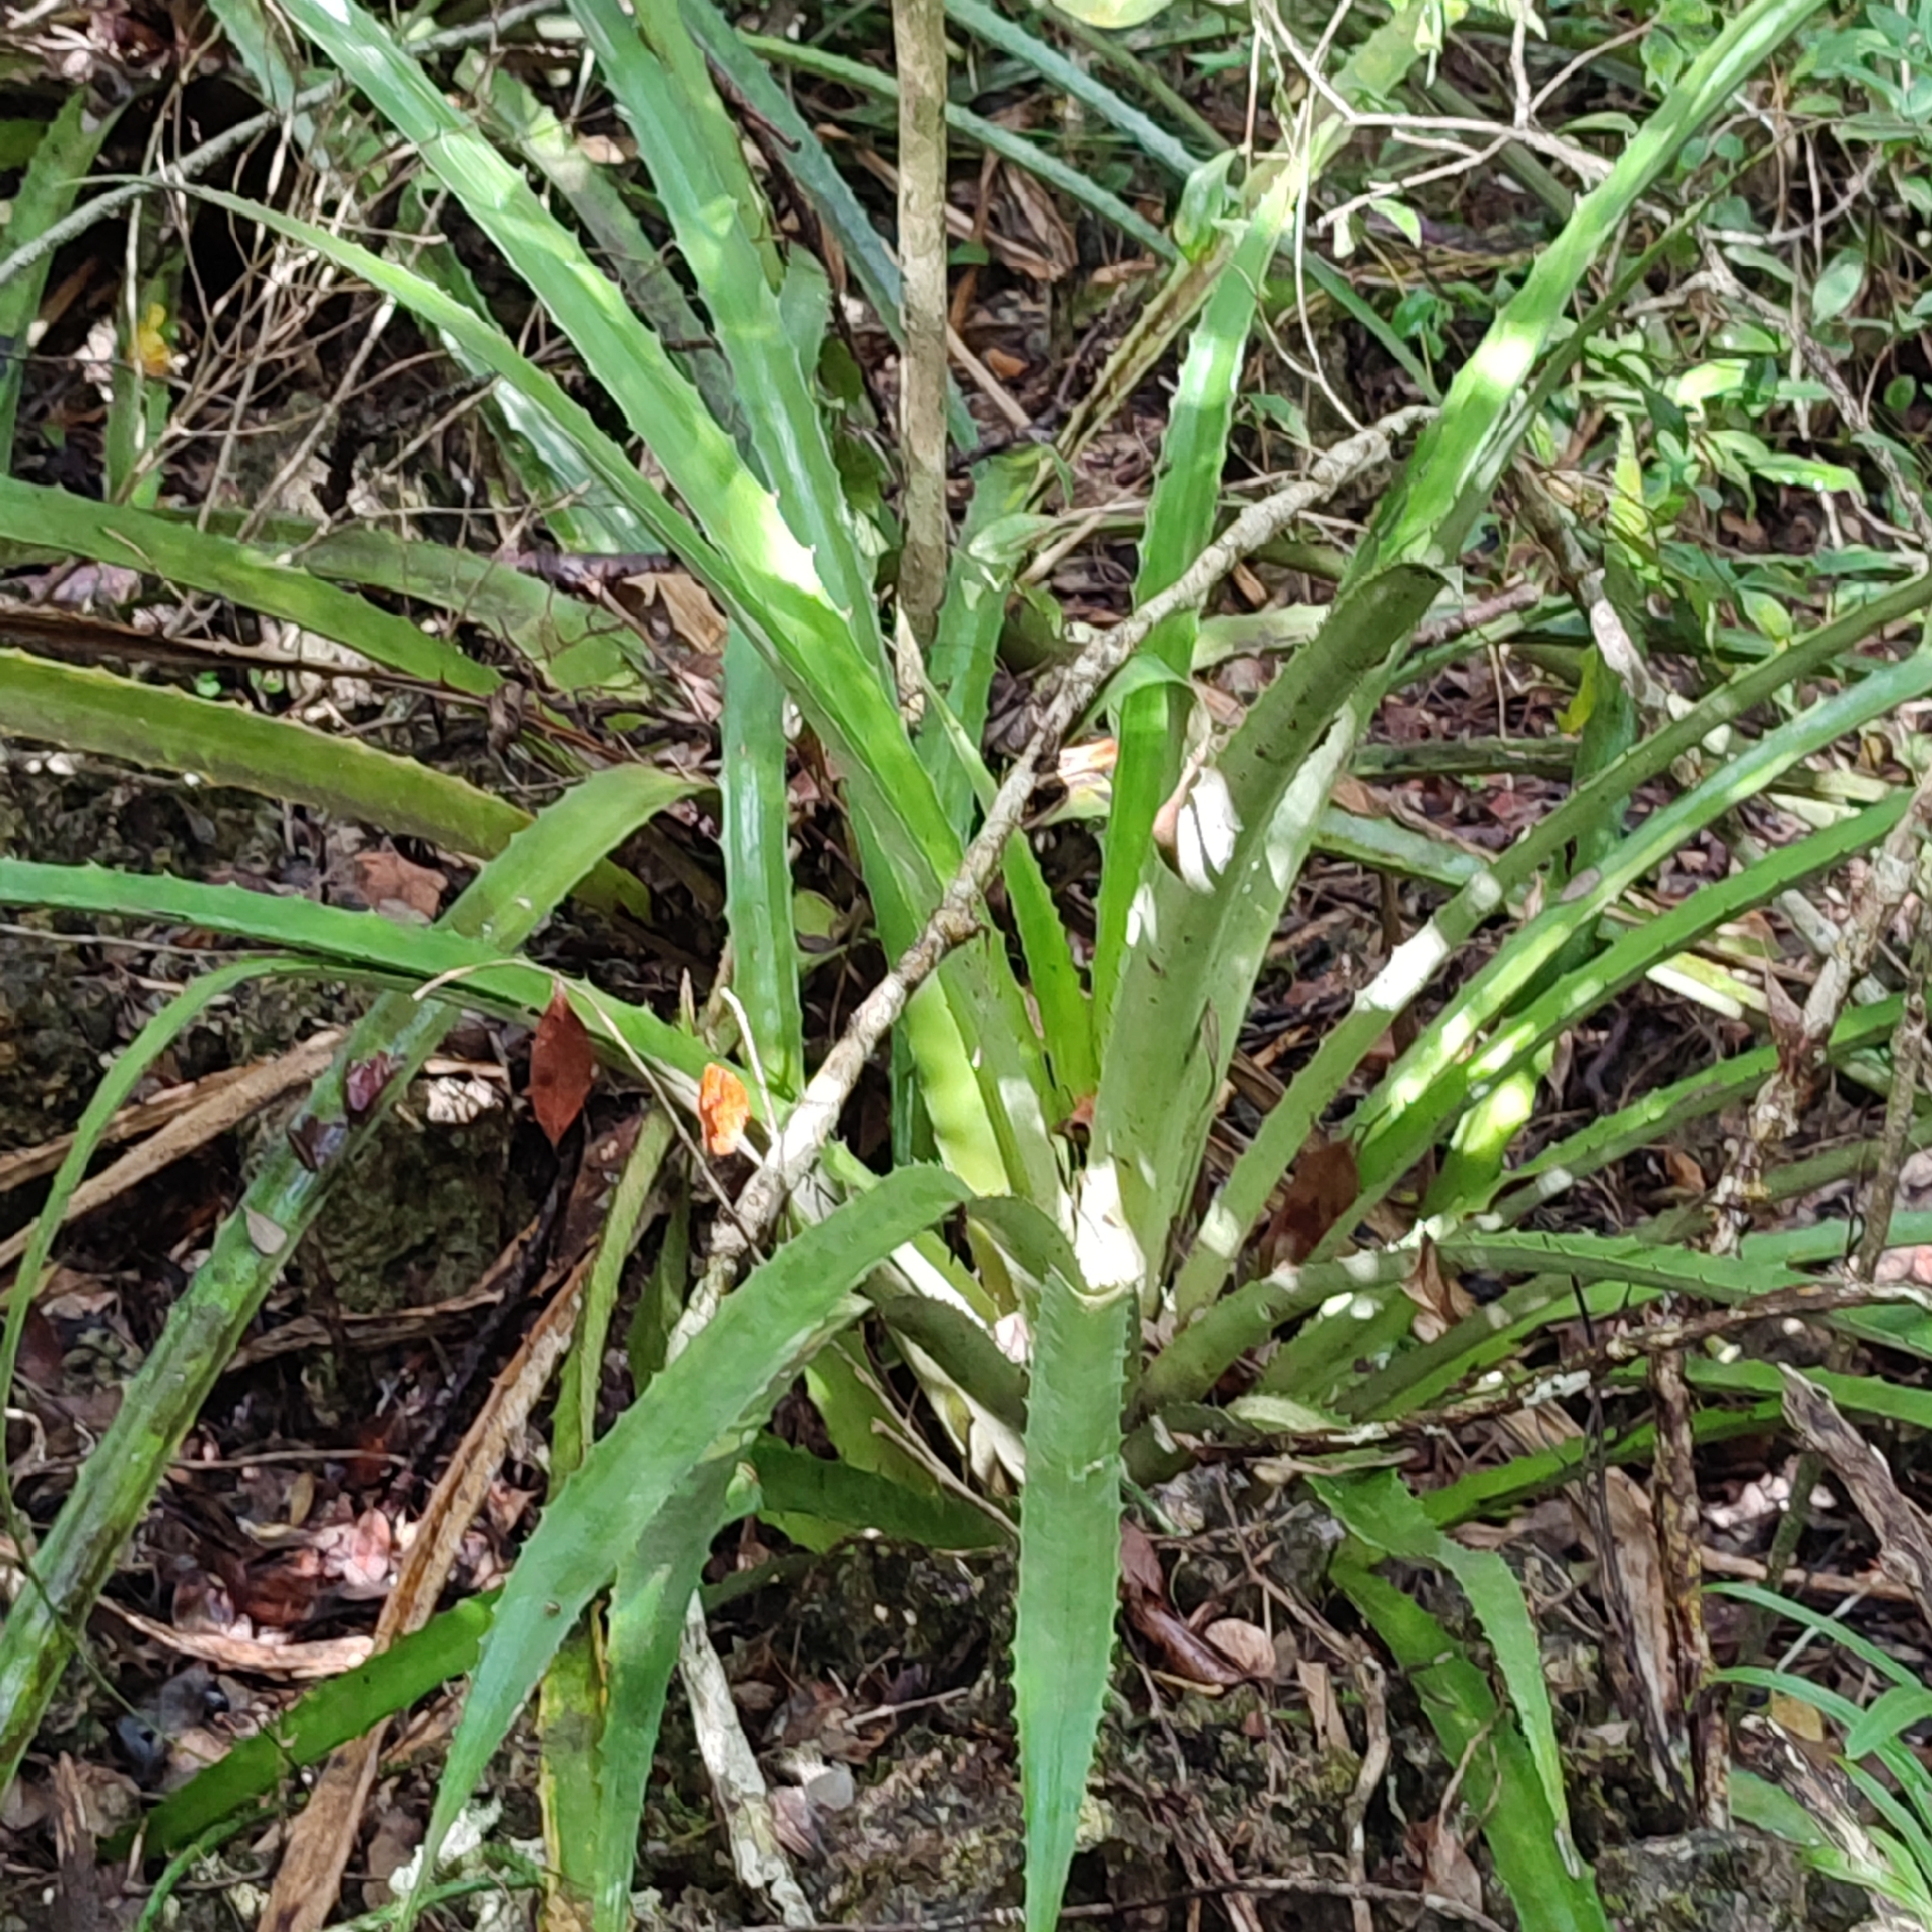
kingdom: Plantae
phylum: Tracheophyta
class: Liliopsida
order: Poales
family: Bromeliaceae
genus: Bromelia
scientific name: Bromelia pinguin
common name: Pinguin
